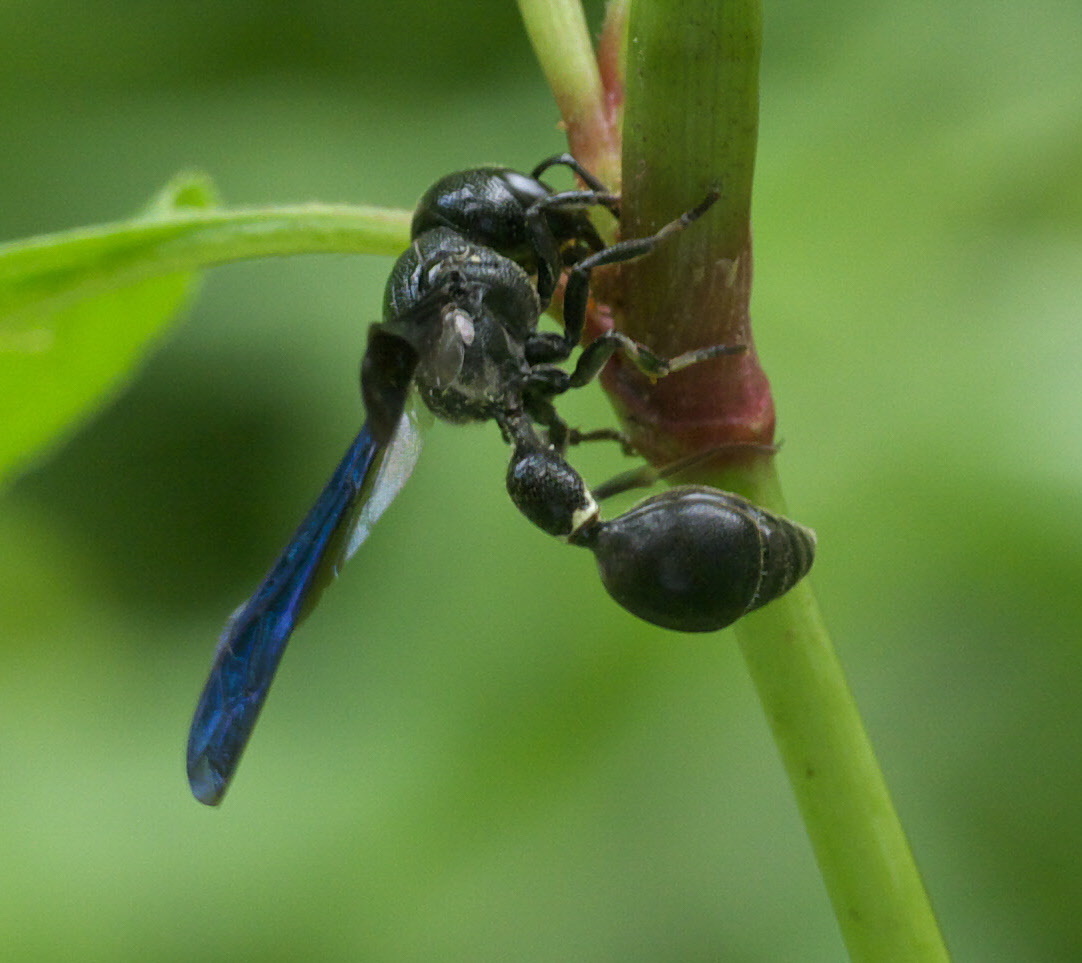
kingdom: Animalia
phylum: Arthropoda
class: Insecta
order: Hymenoptera
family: Eumenidae
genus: Zethus
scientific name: Zethus spinipes
